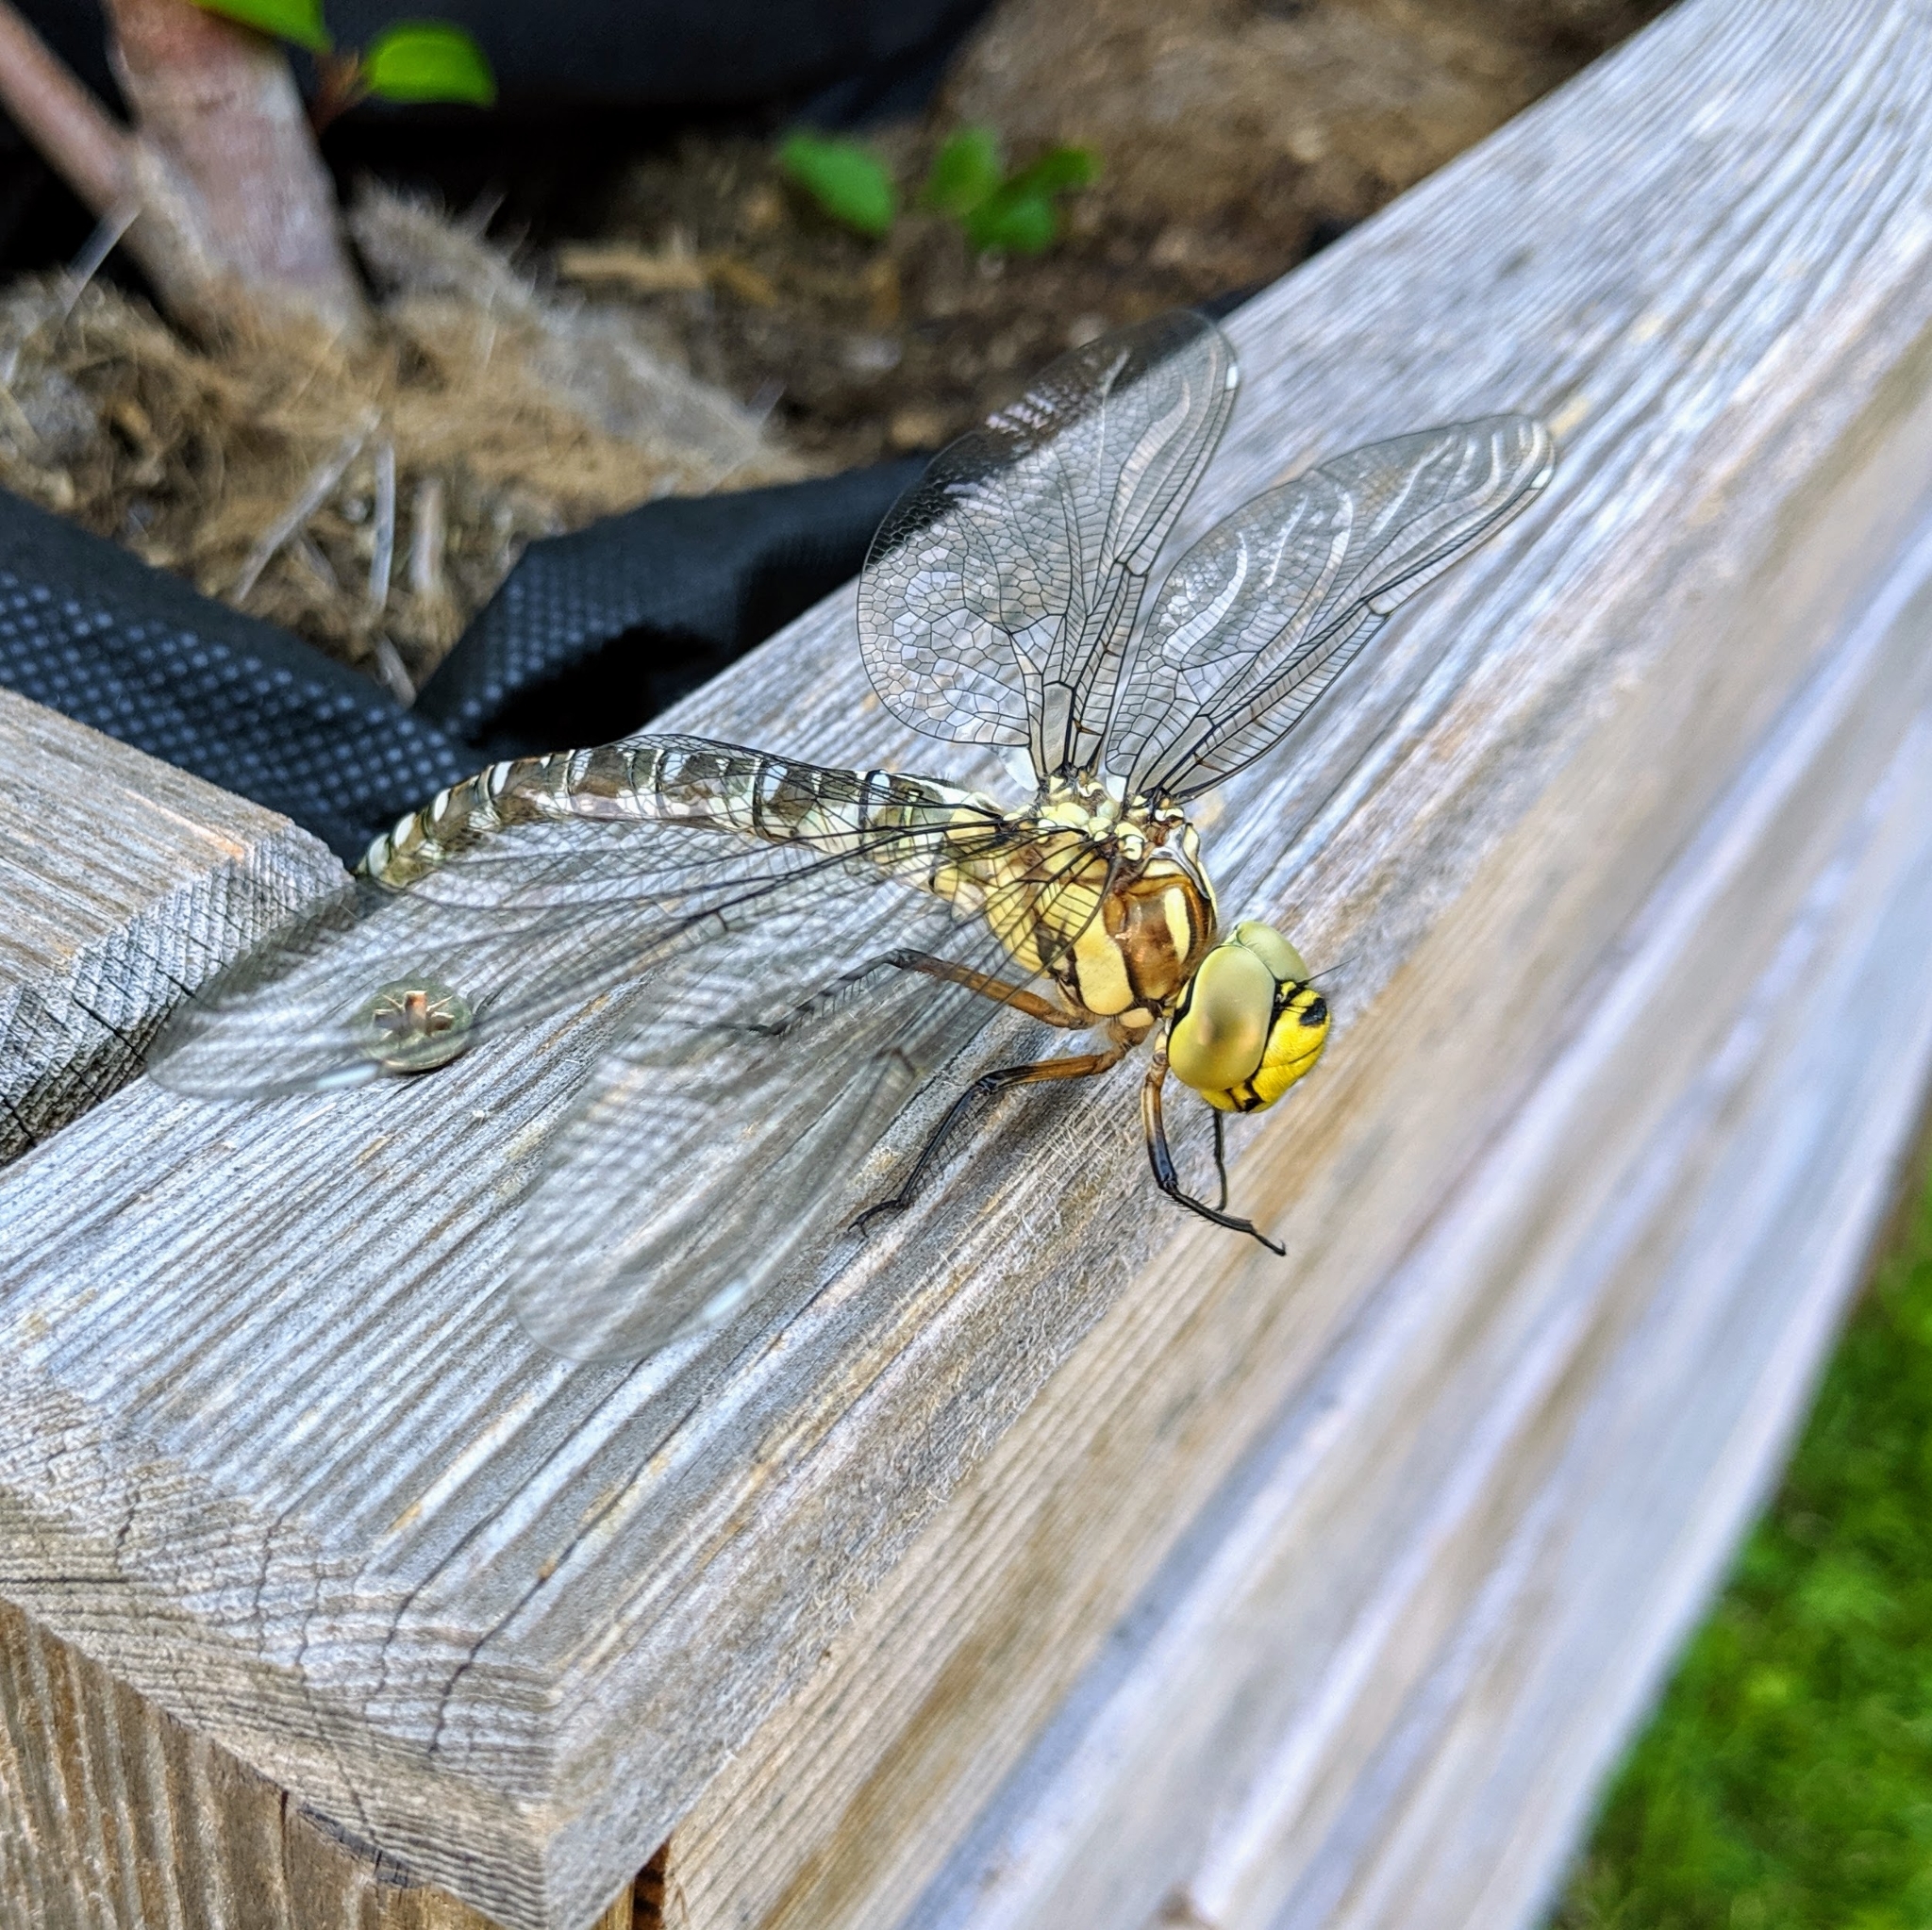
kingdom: Animalia
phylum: Arthropoda
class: Insecta
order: Odonata
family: Aeshnidae
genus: Aeshna
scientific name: Aeshna cyanea
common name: Southern hawker
